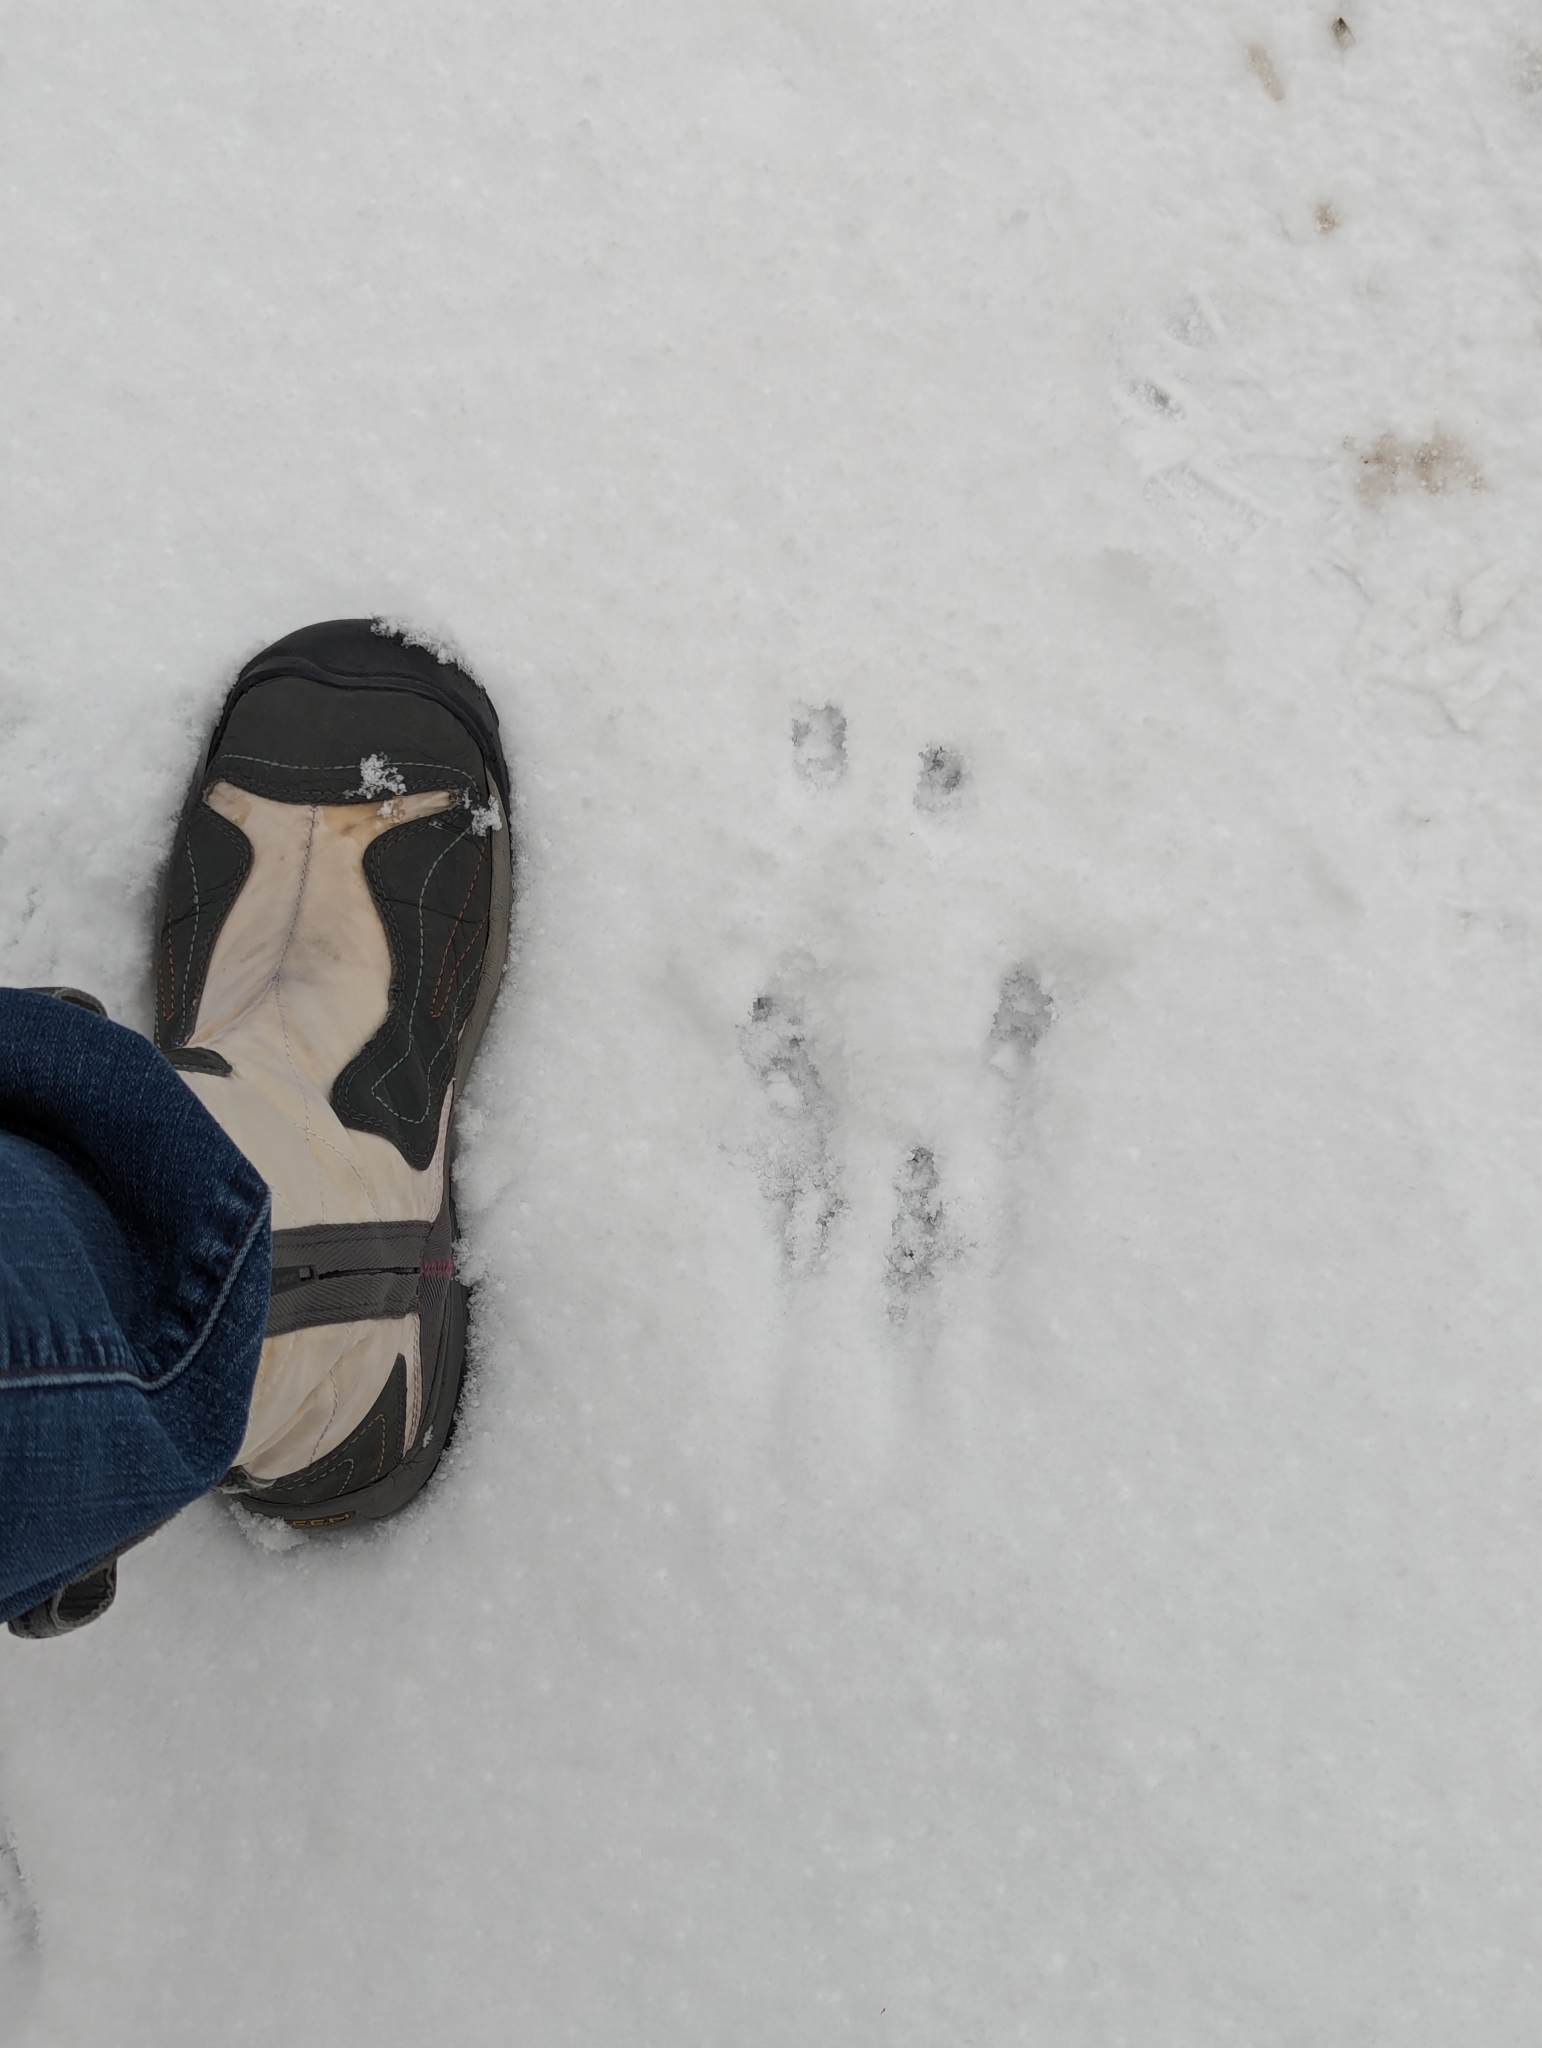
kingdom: Animalia
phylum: Chordata
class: Mammalia
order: Rodentia
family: Sciuridae
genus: Sciurus
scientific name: Sciurus carolinensis
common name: Eastern gray squirrel
